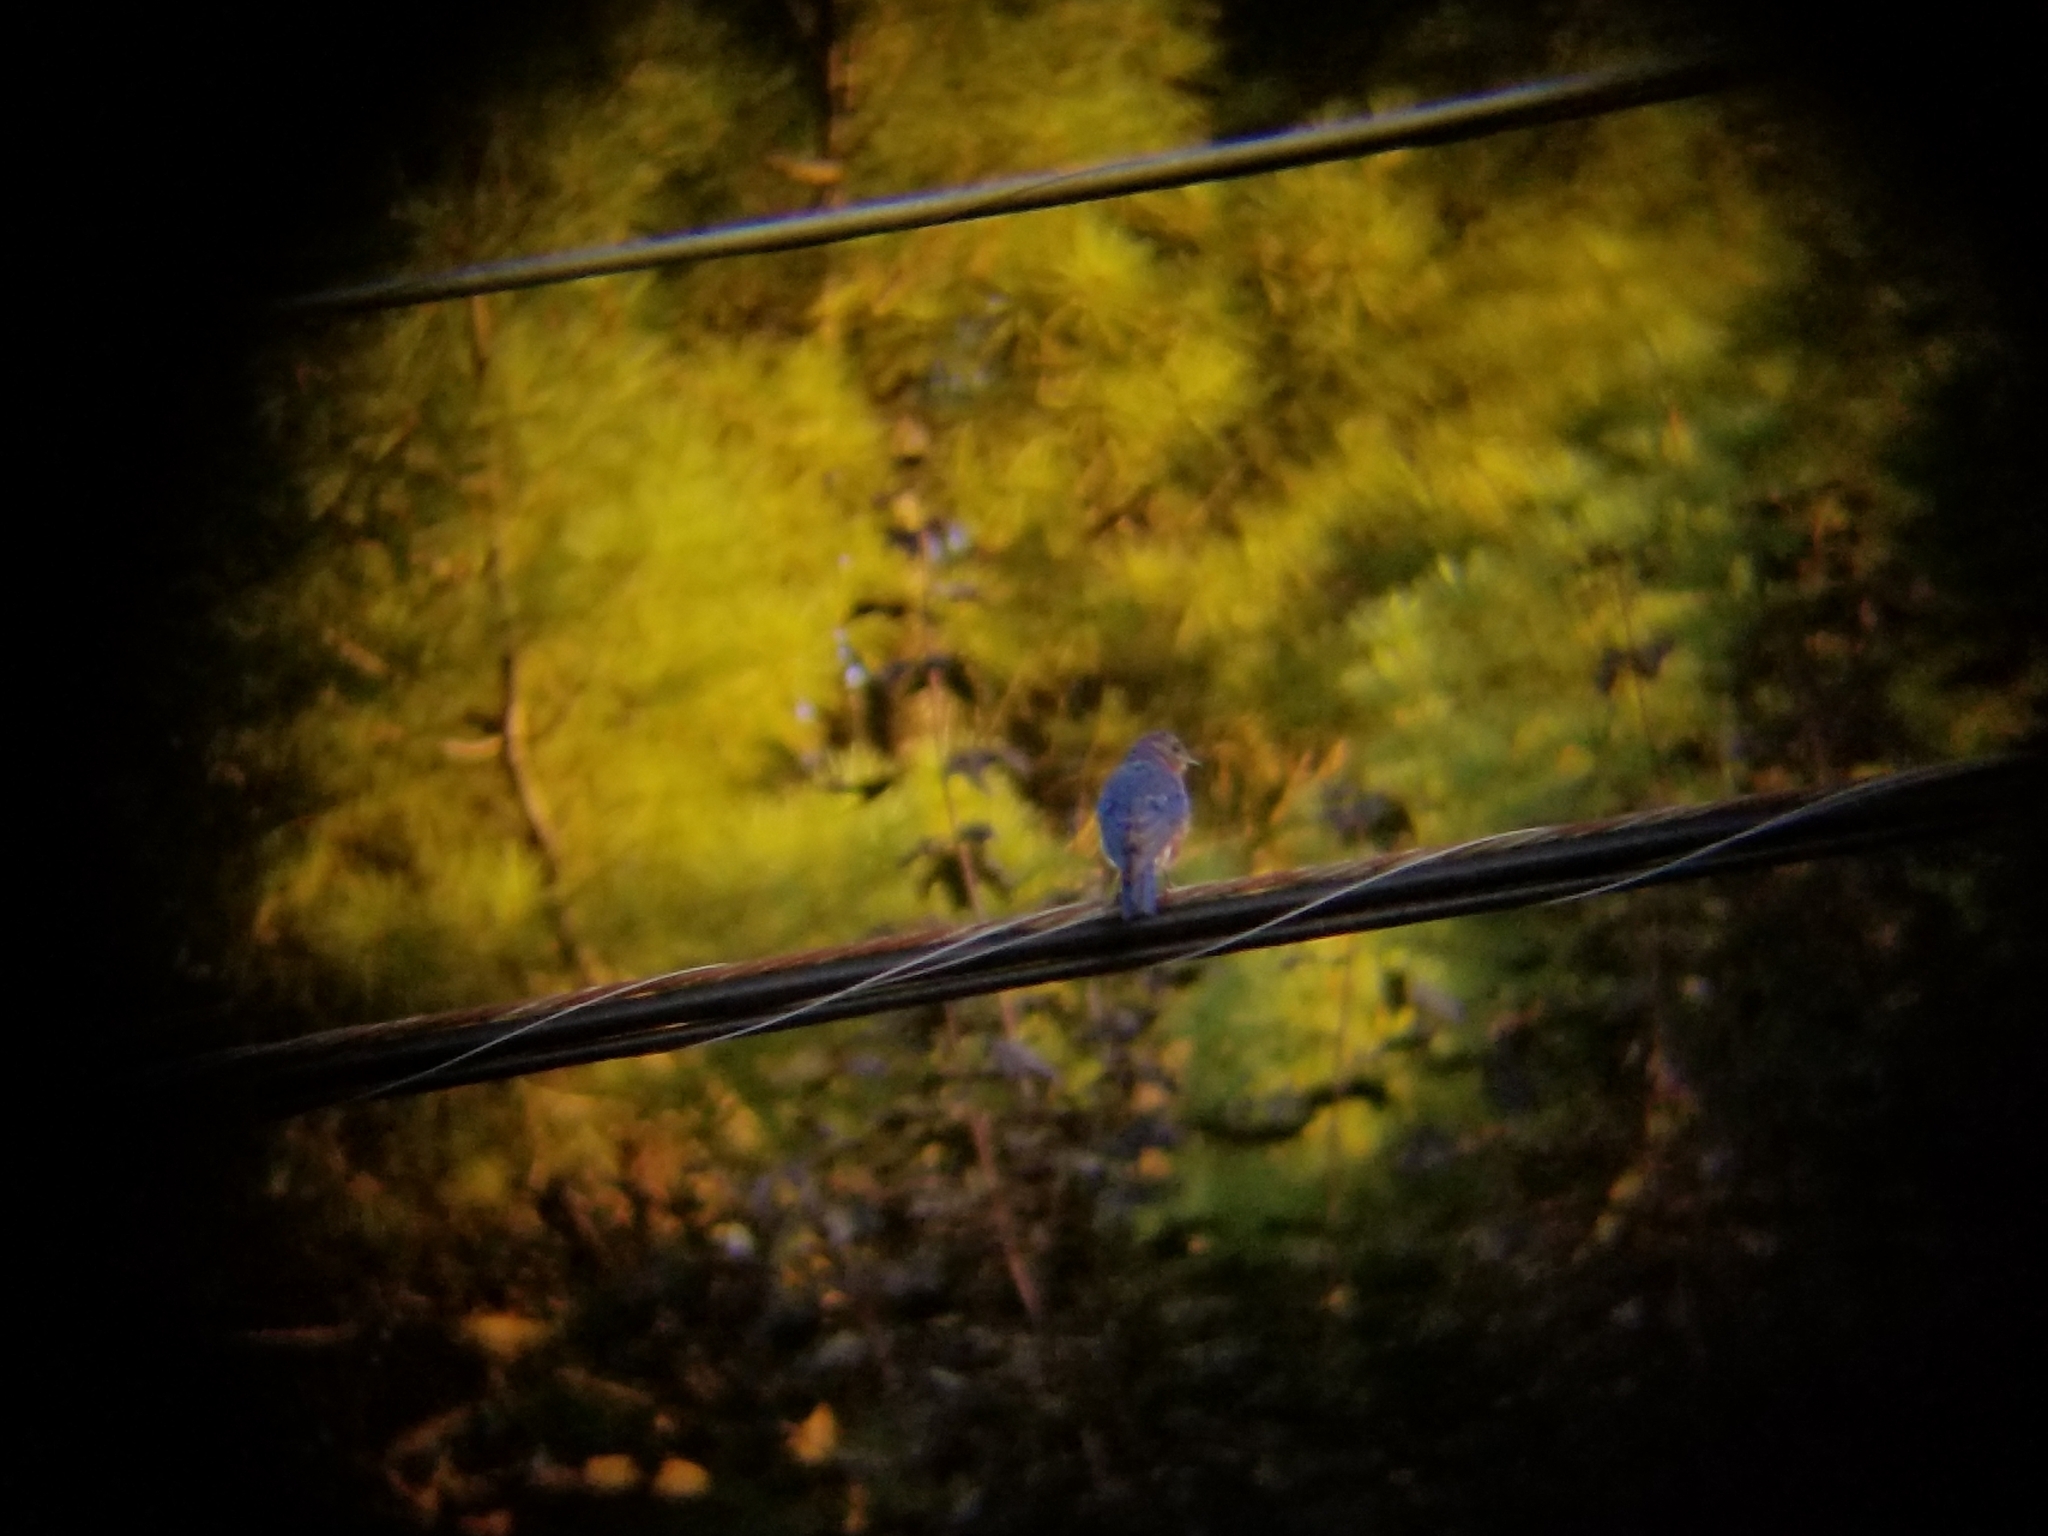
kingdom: Animalia
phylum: Chordata
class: Aves
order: Passeriformes
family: Turdidae
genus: Sialia
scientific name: Sialia sialis
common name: Eastern bluebird
